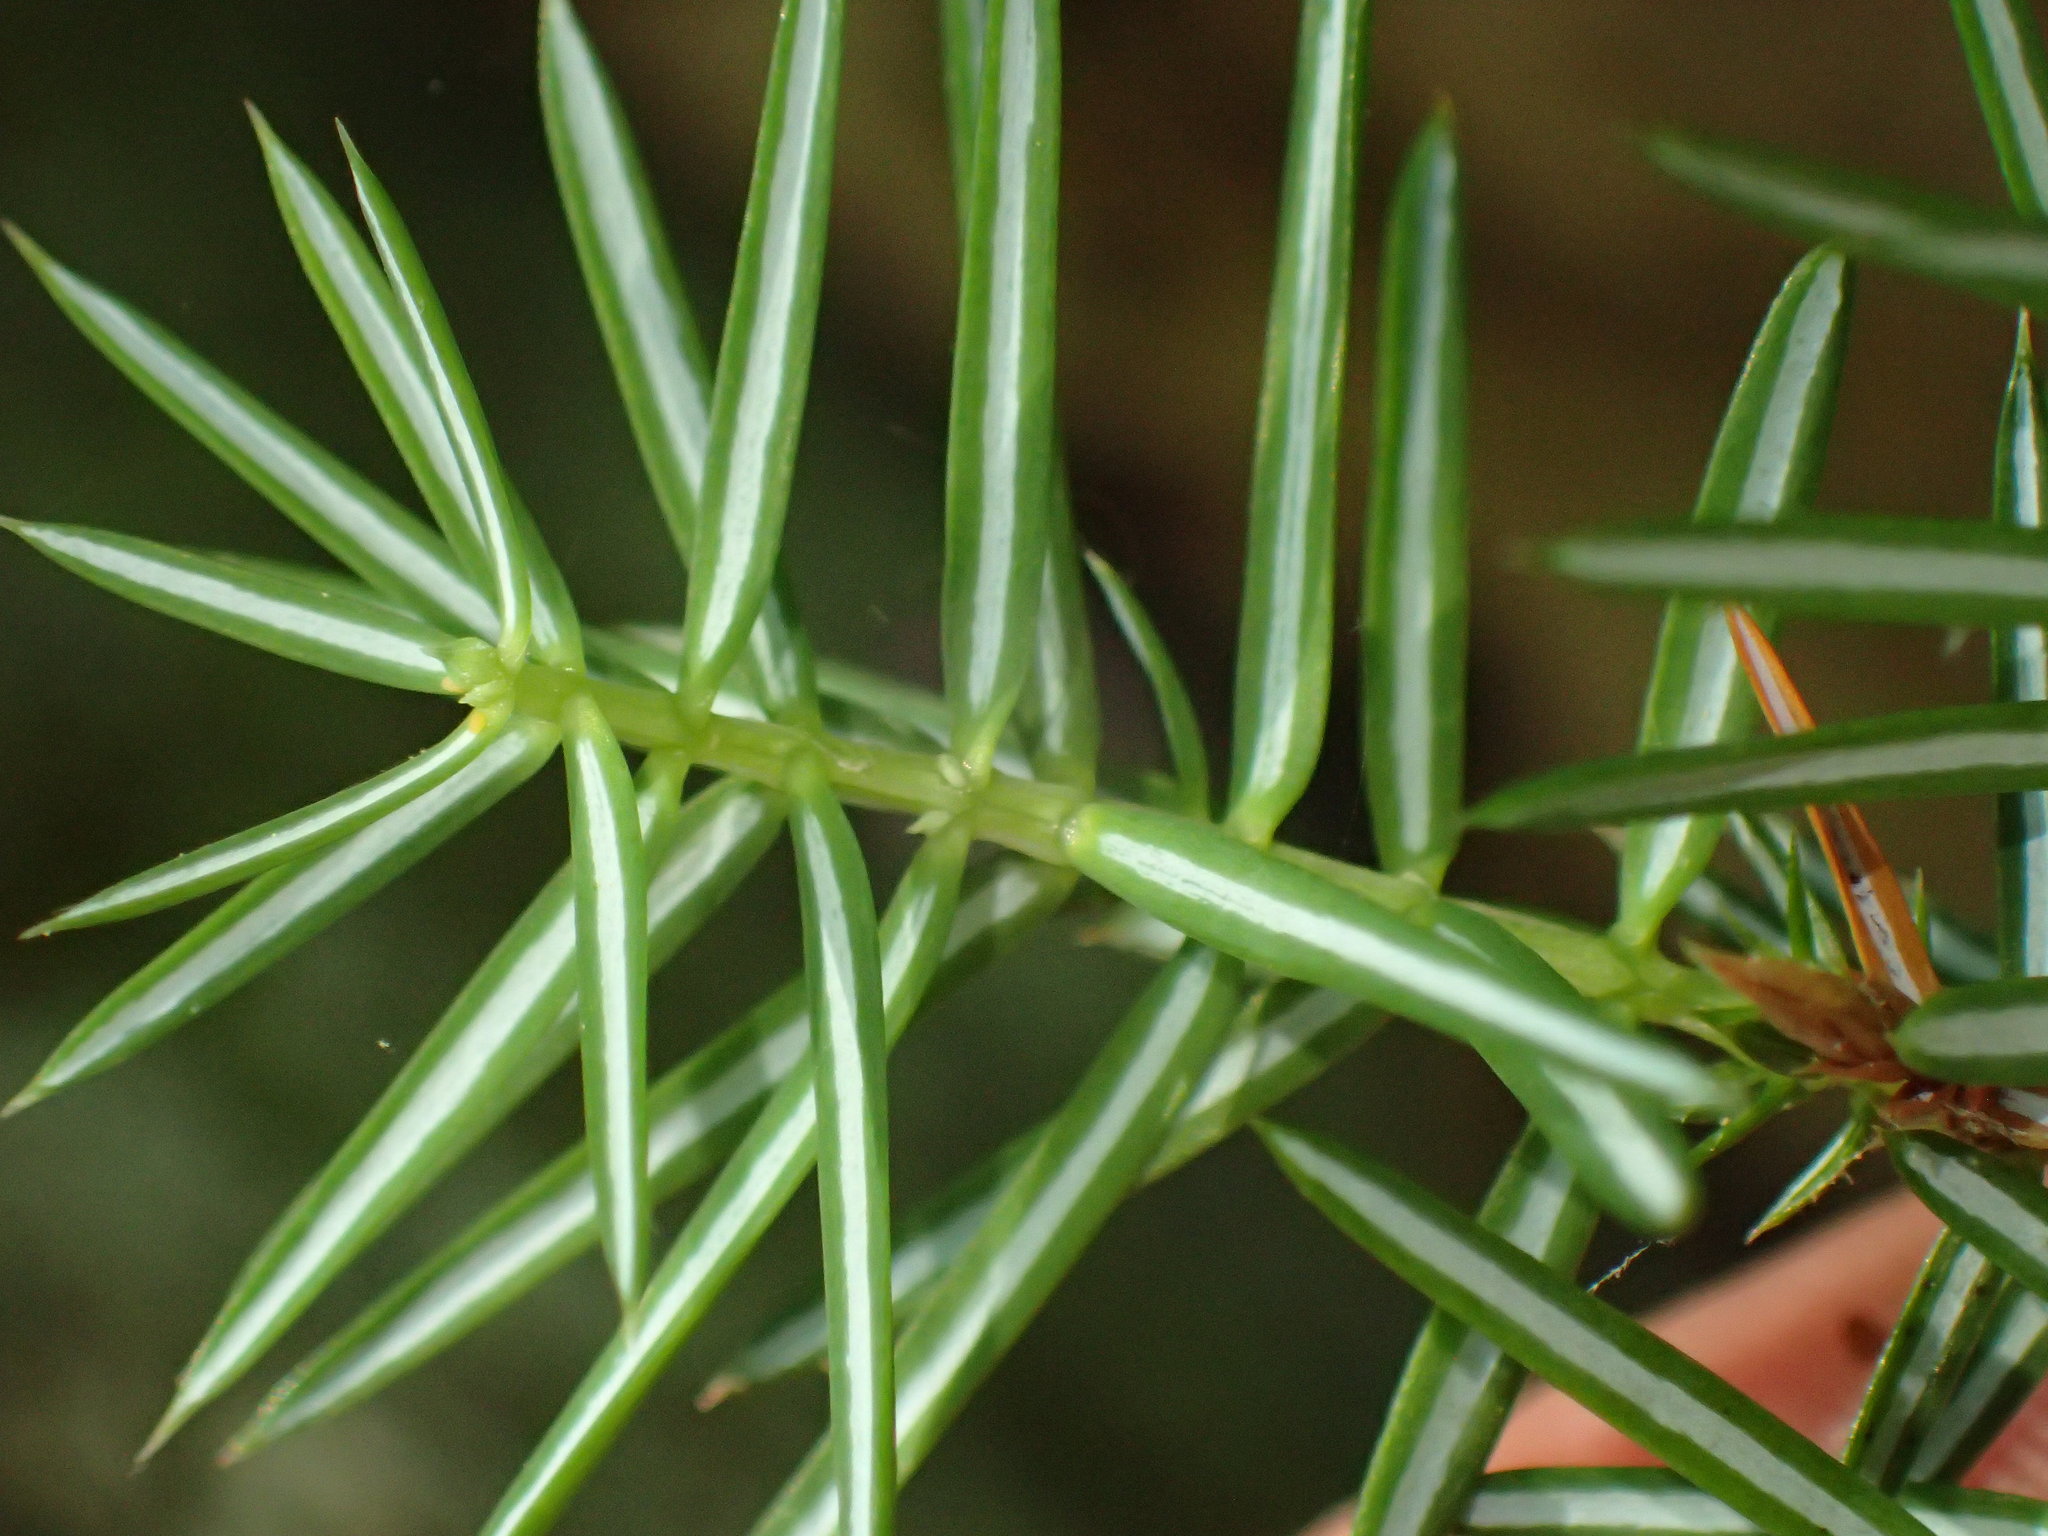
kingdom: Plantae
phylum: Tracheophyta
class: Pinopsida
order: Pinales
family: Cupressaceae
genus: Juniperus
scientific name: Juniperus communis
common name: Common juniper
